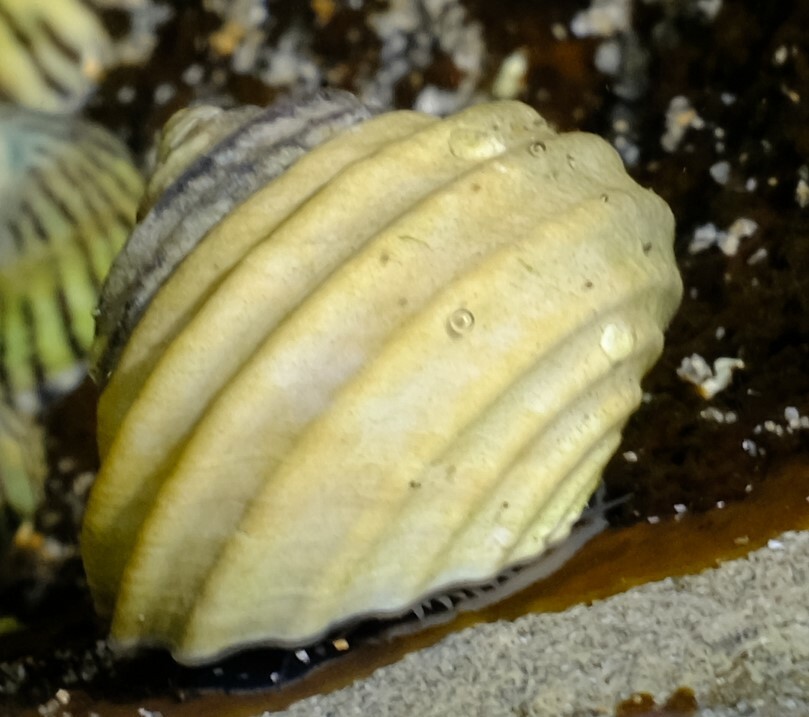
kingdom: Animalia
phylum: Mollusca
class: Gastropoda
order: Trochida
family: Trochidae
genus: Austrocochlea
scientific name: Austrocochlea constricta
